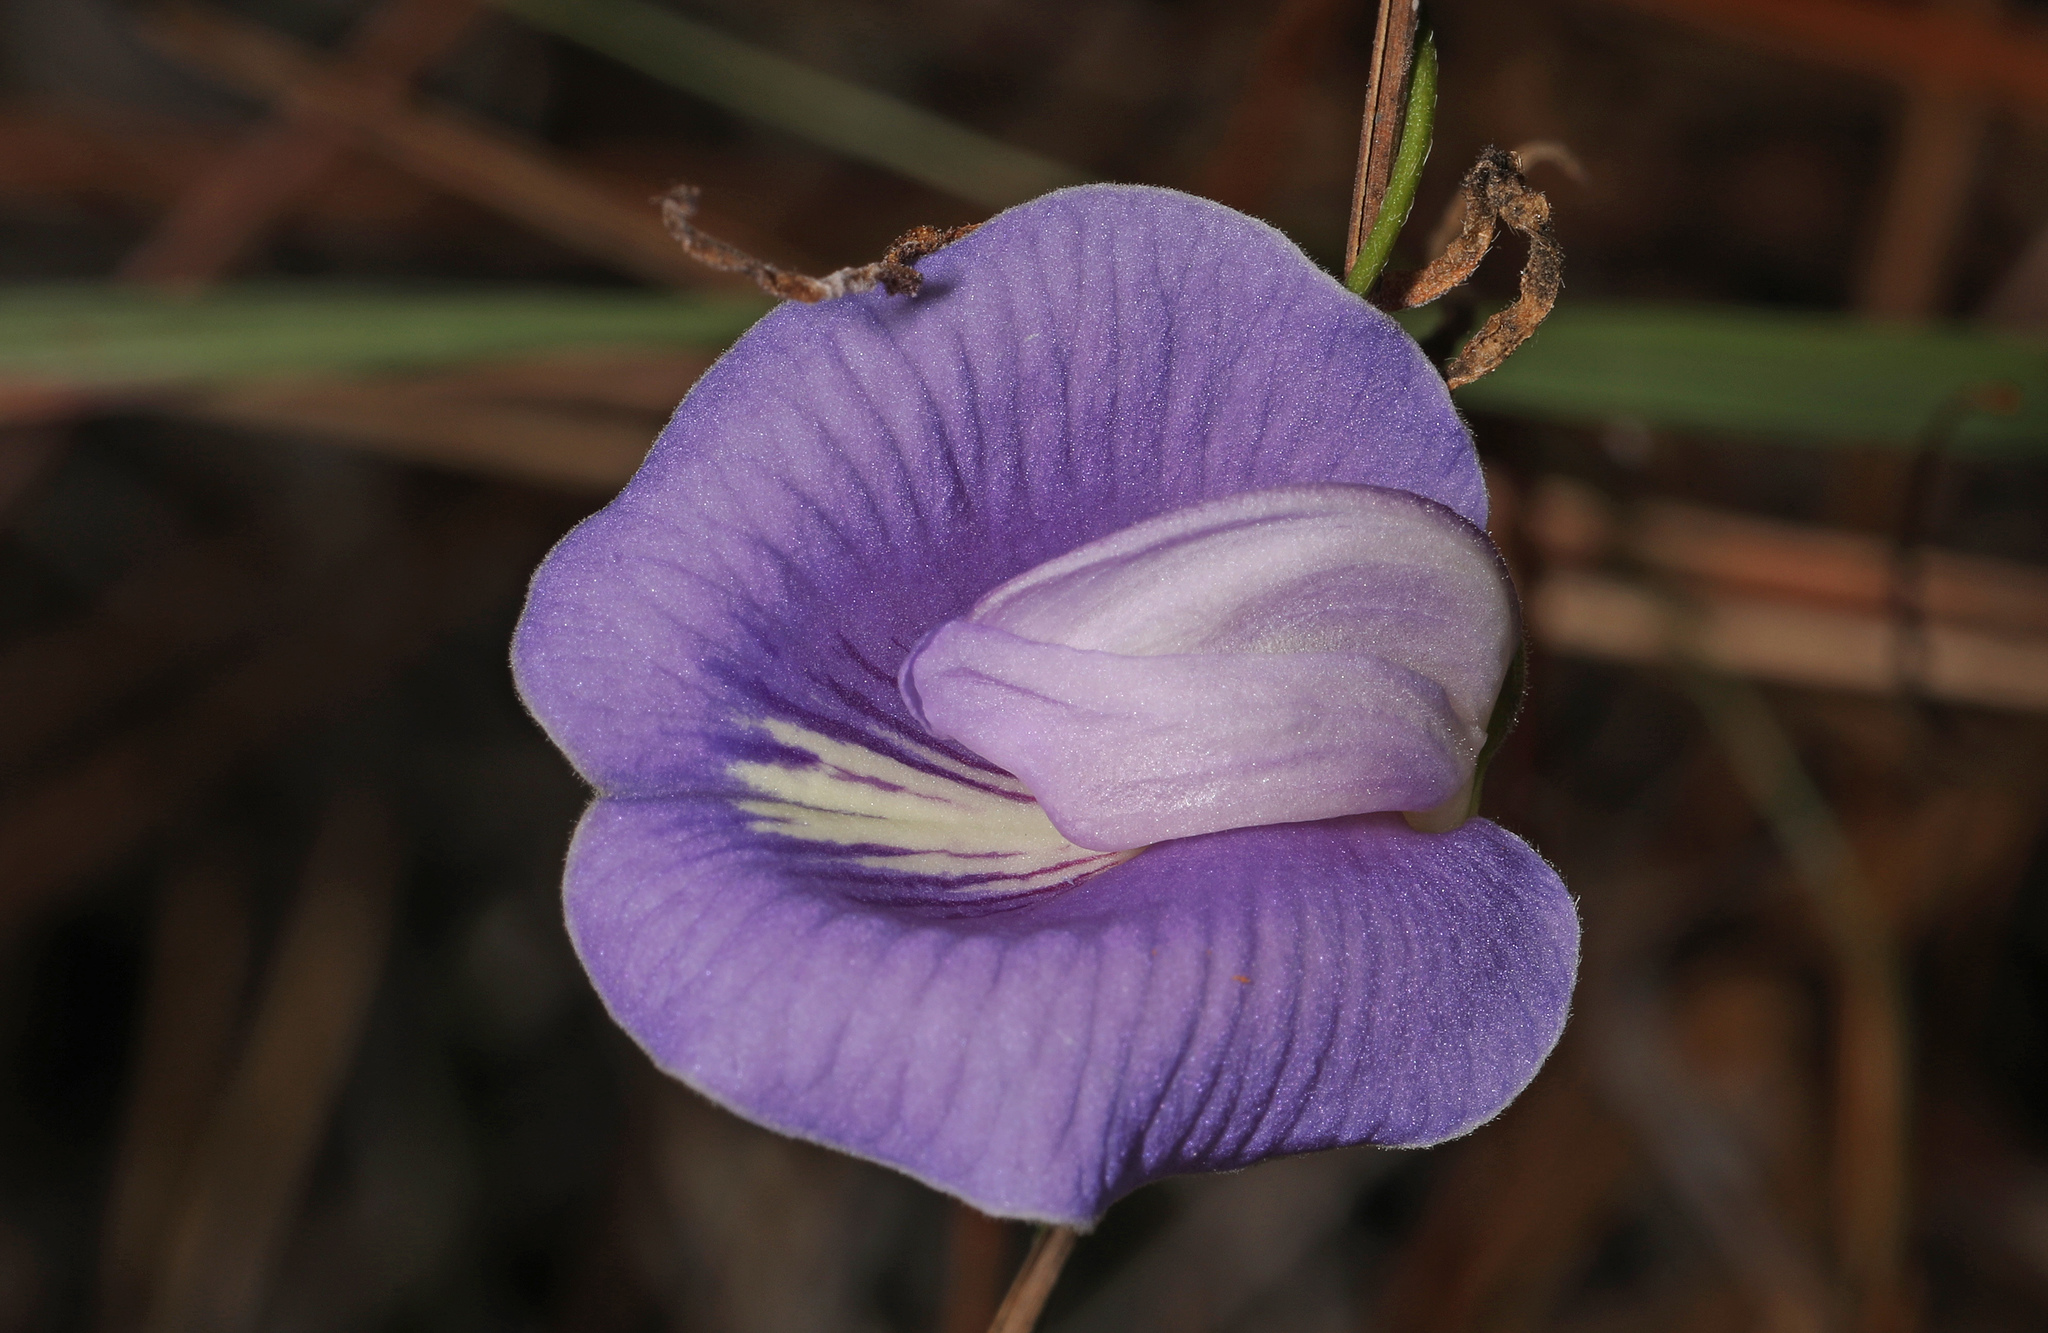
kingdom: Plantae
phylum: Tracheophyta
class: Magnoliopsida
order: Fabales
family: Fabaceae
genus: Centrosema
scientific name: Centrosema virginianum
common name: Butterfly-pea
